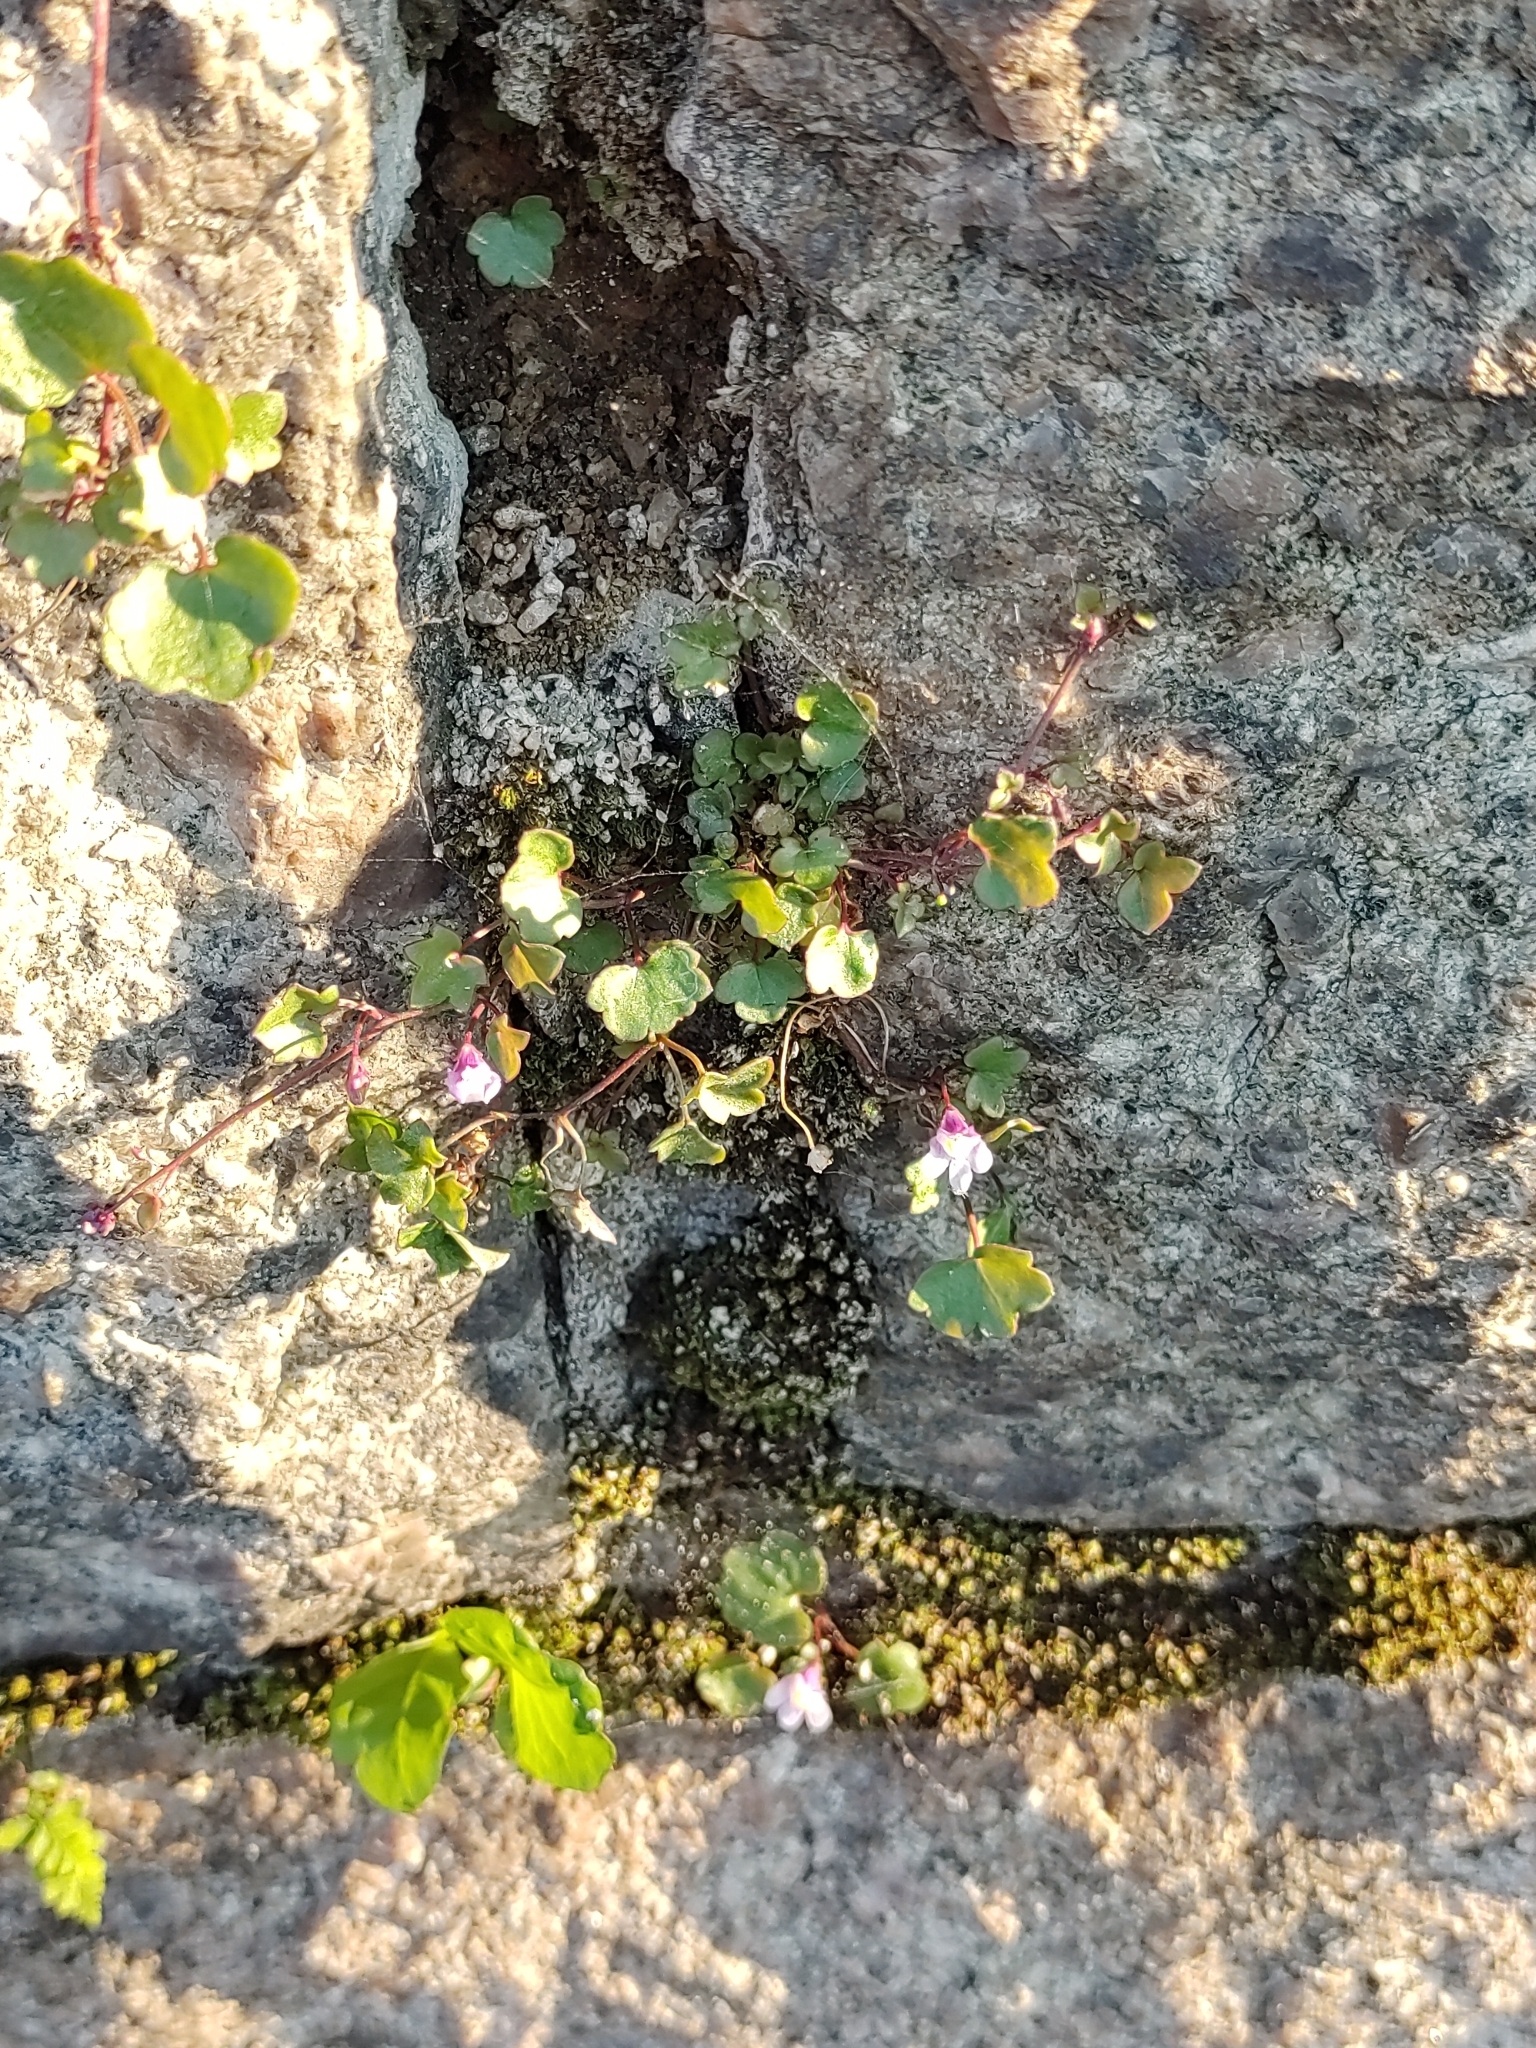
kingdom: Plantae
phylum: Tracheophyta
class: Magnoliopsida
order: Lamiales
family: Plantaginaceae
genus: Cymbalaria
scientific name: Cymbalaria muralis
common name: Ivy-leaved toadflax
